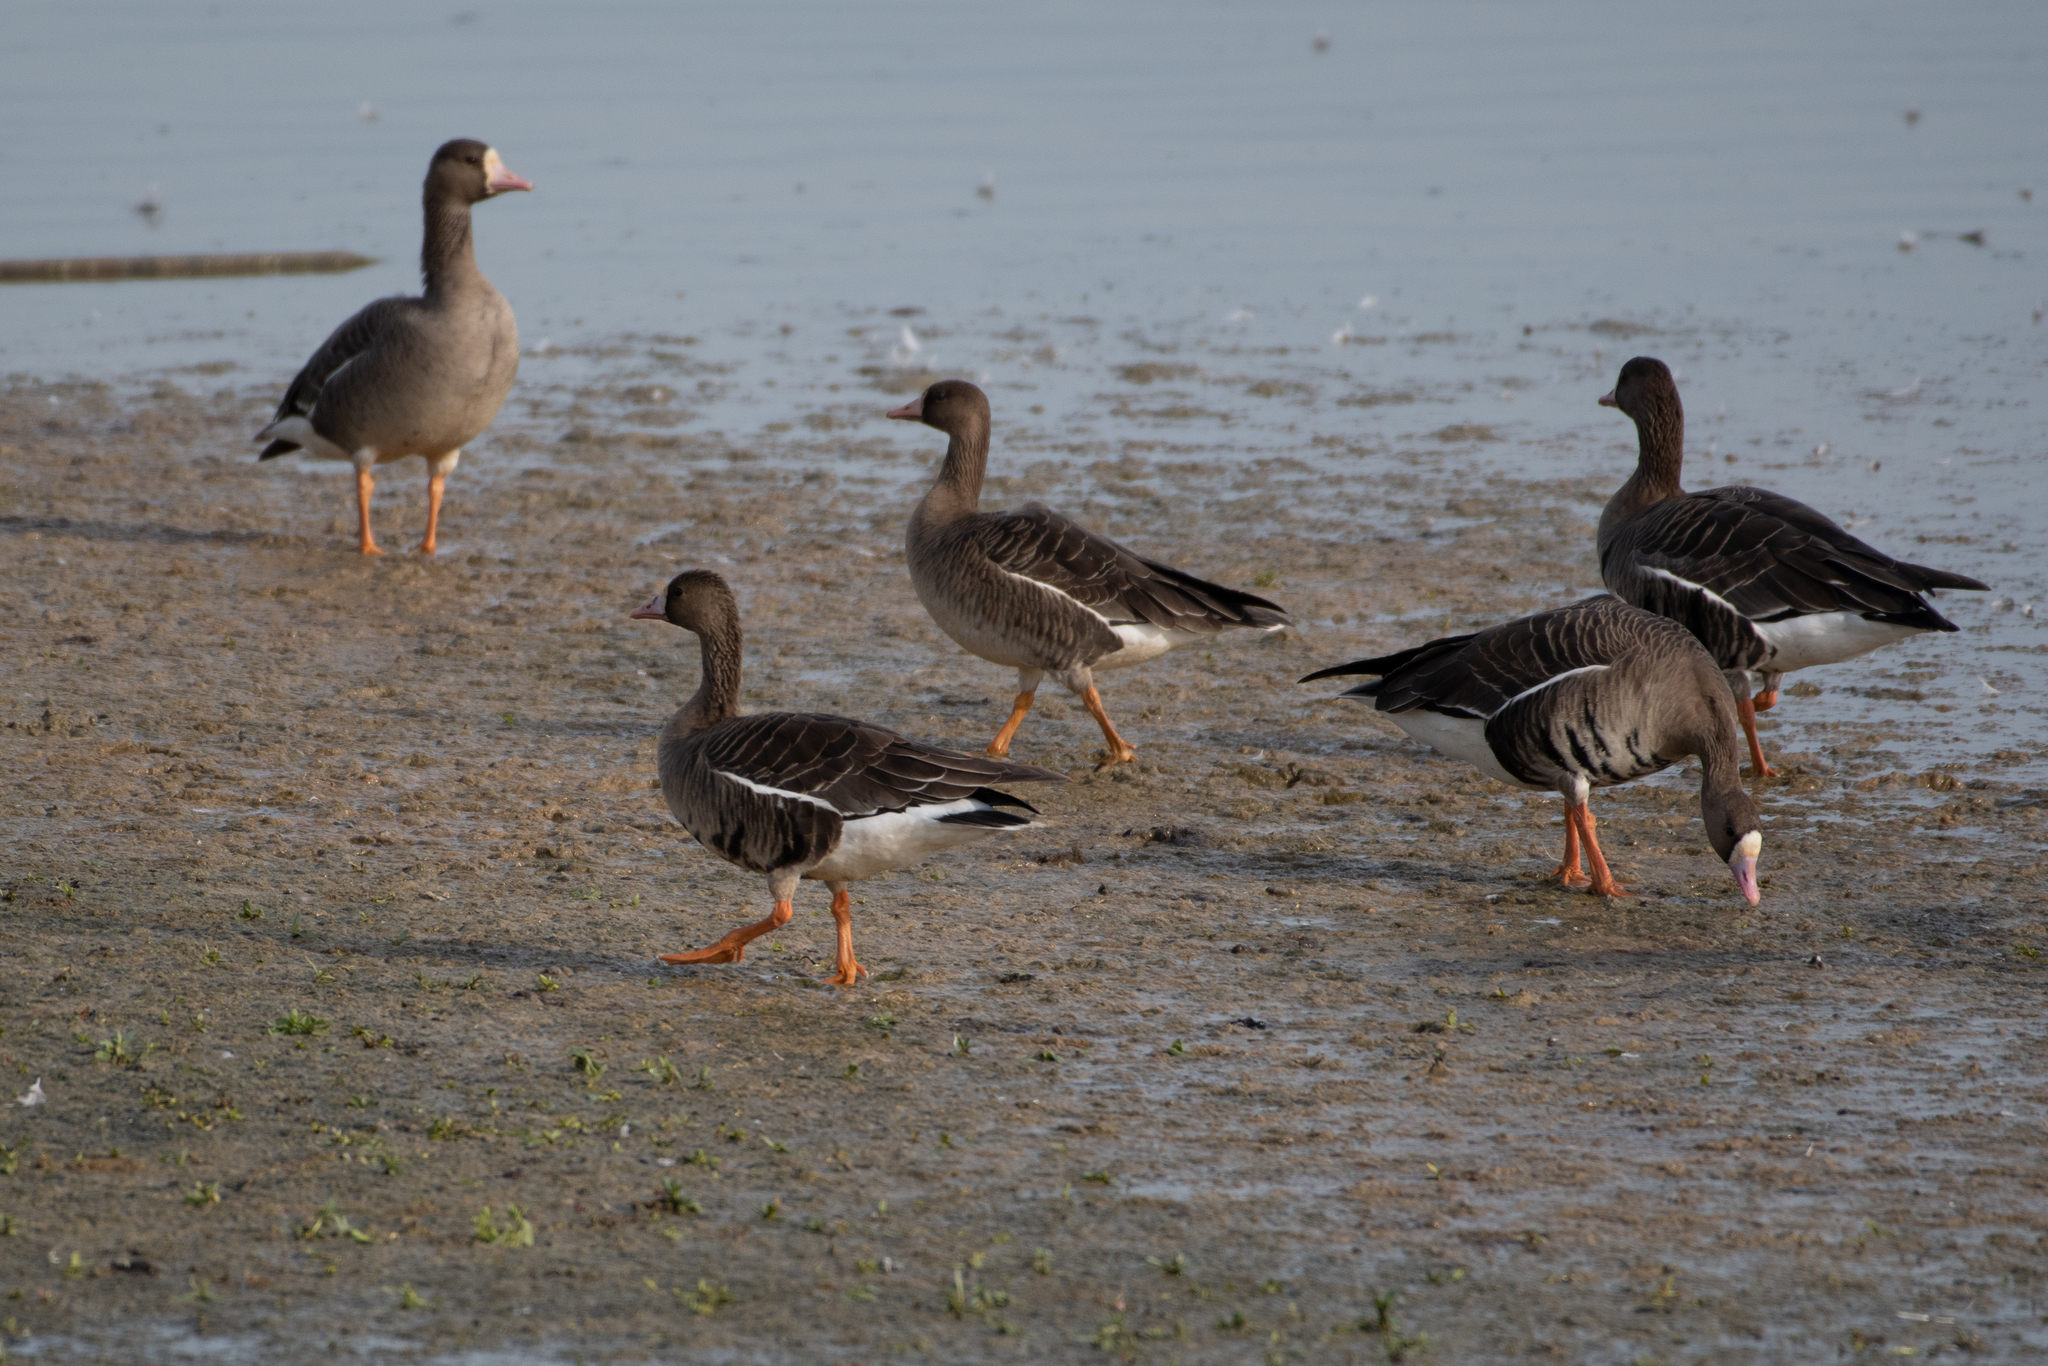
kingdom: Animalia
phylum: Chordata
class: Aves
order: Anseriformes
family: Anatidae
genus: Anser
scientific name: Anser albifrons
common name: Greater white-fronted goose
